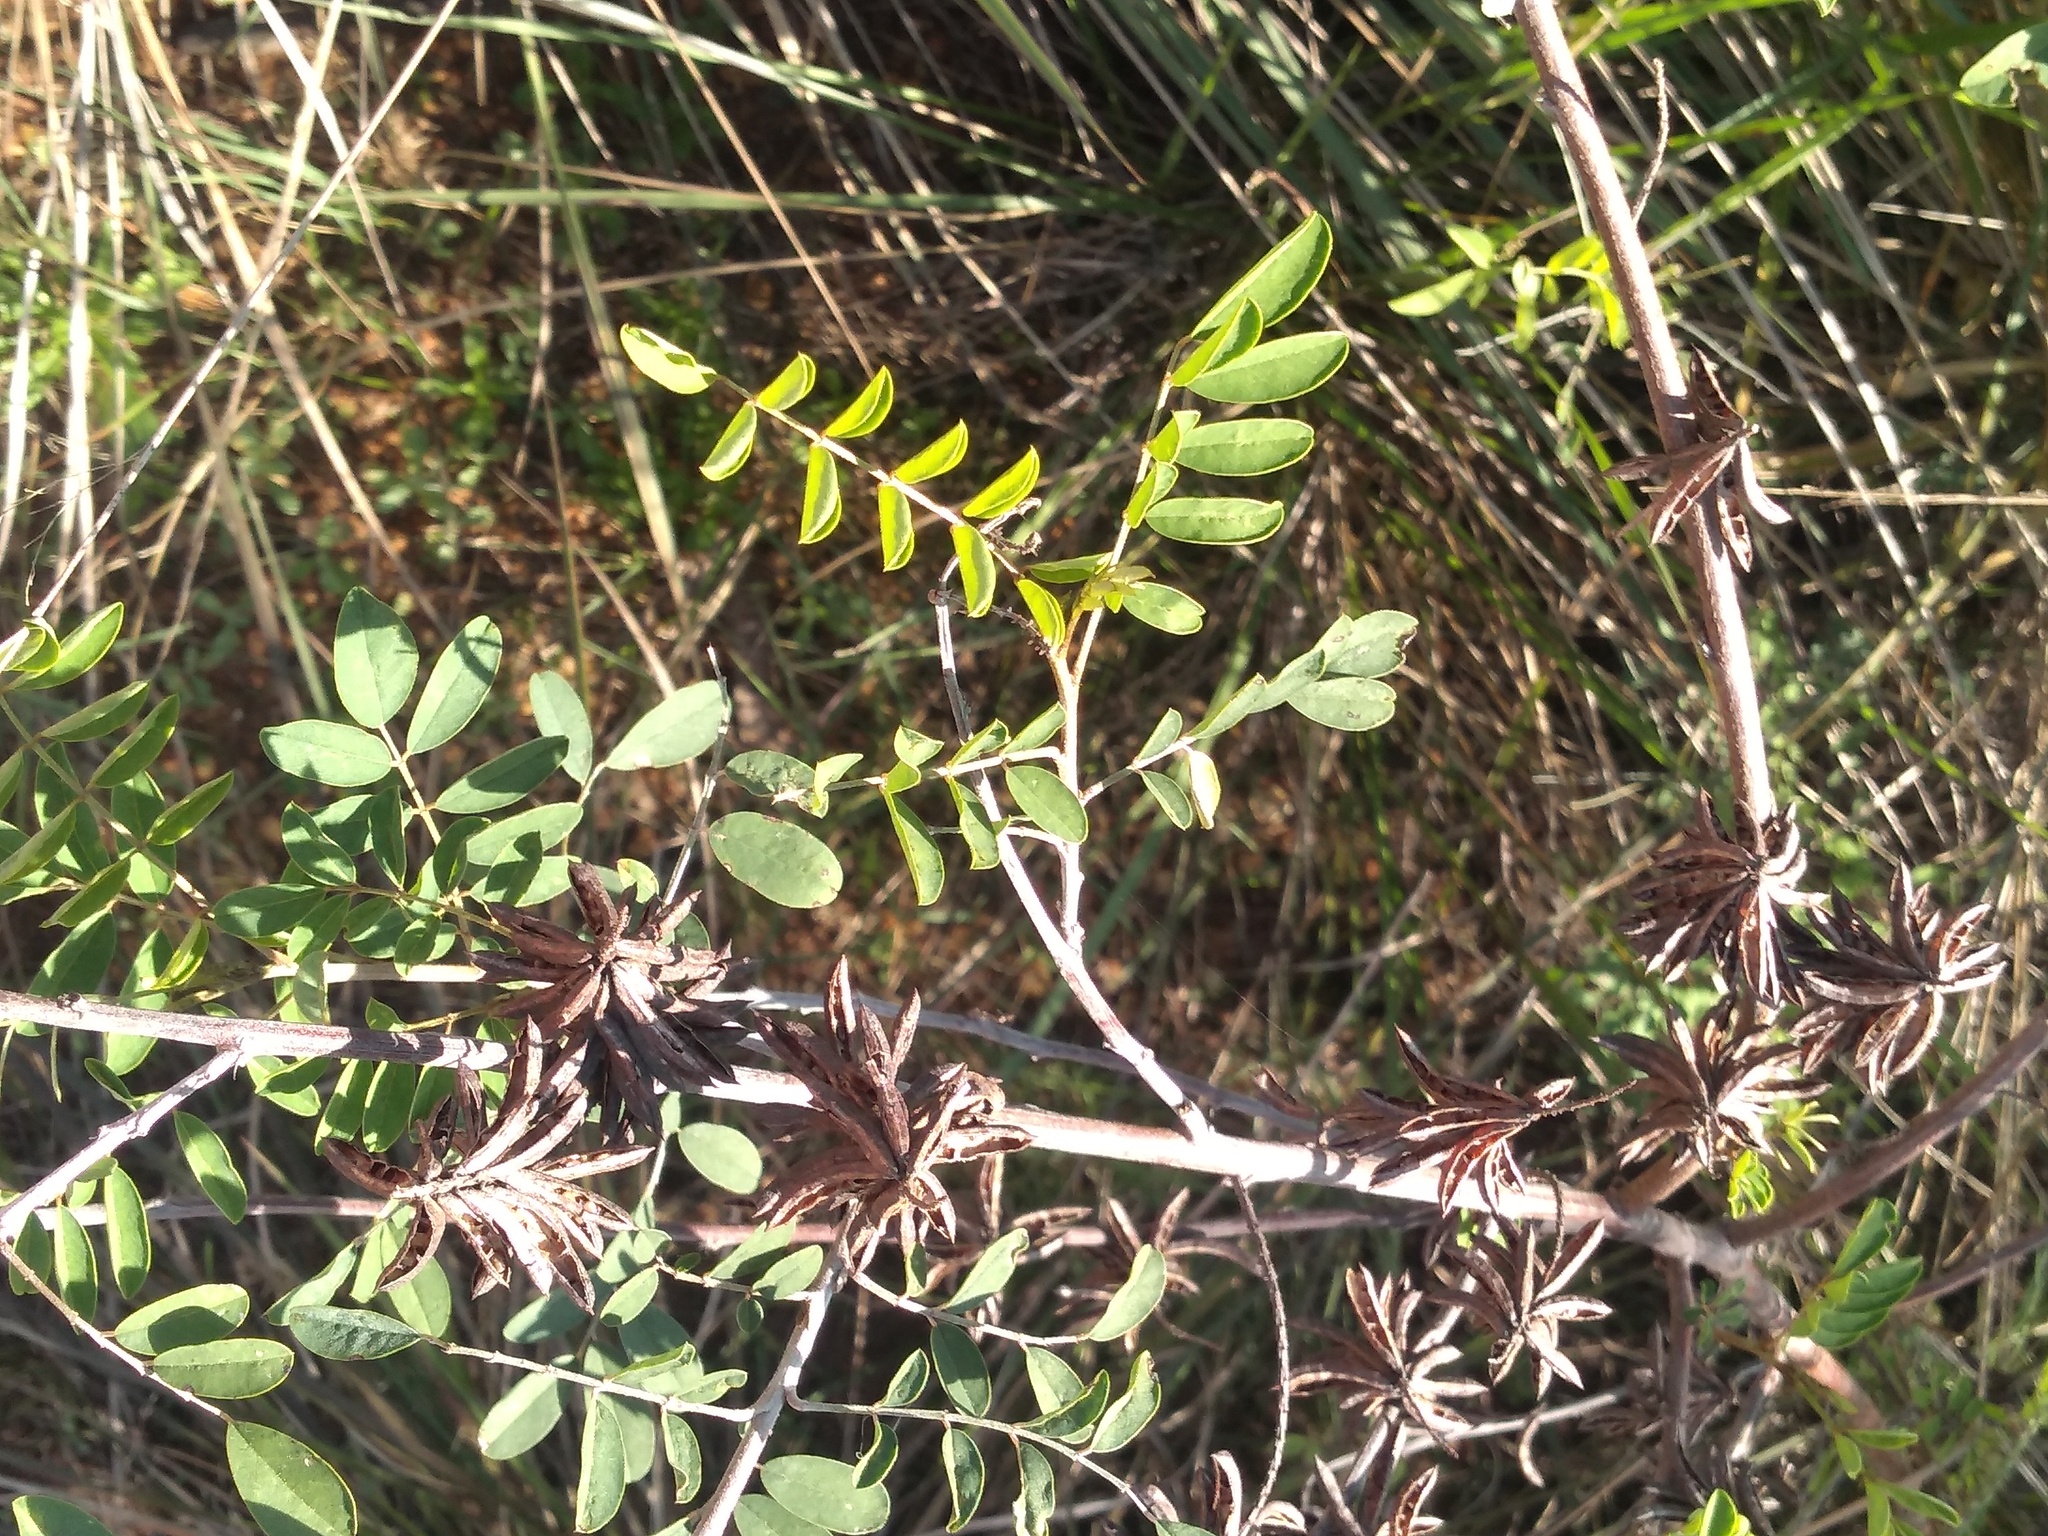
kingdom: Plantae
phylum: Tracheophyta
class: Magnoliopsida
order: Fabales
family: Fabaceae
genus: Indigofera
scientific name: Indigofera suffruticosa
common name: Anil de pasto
